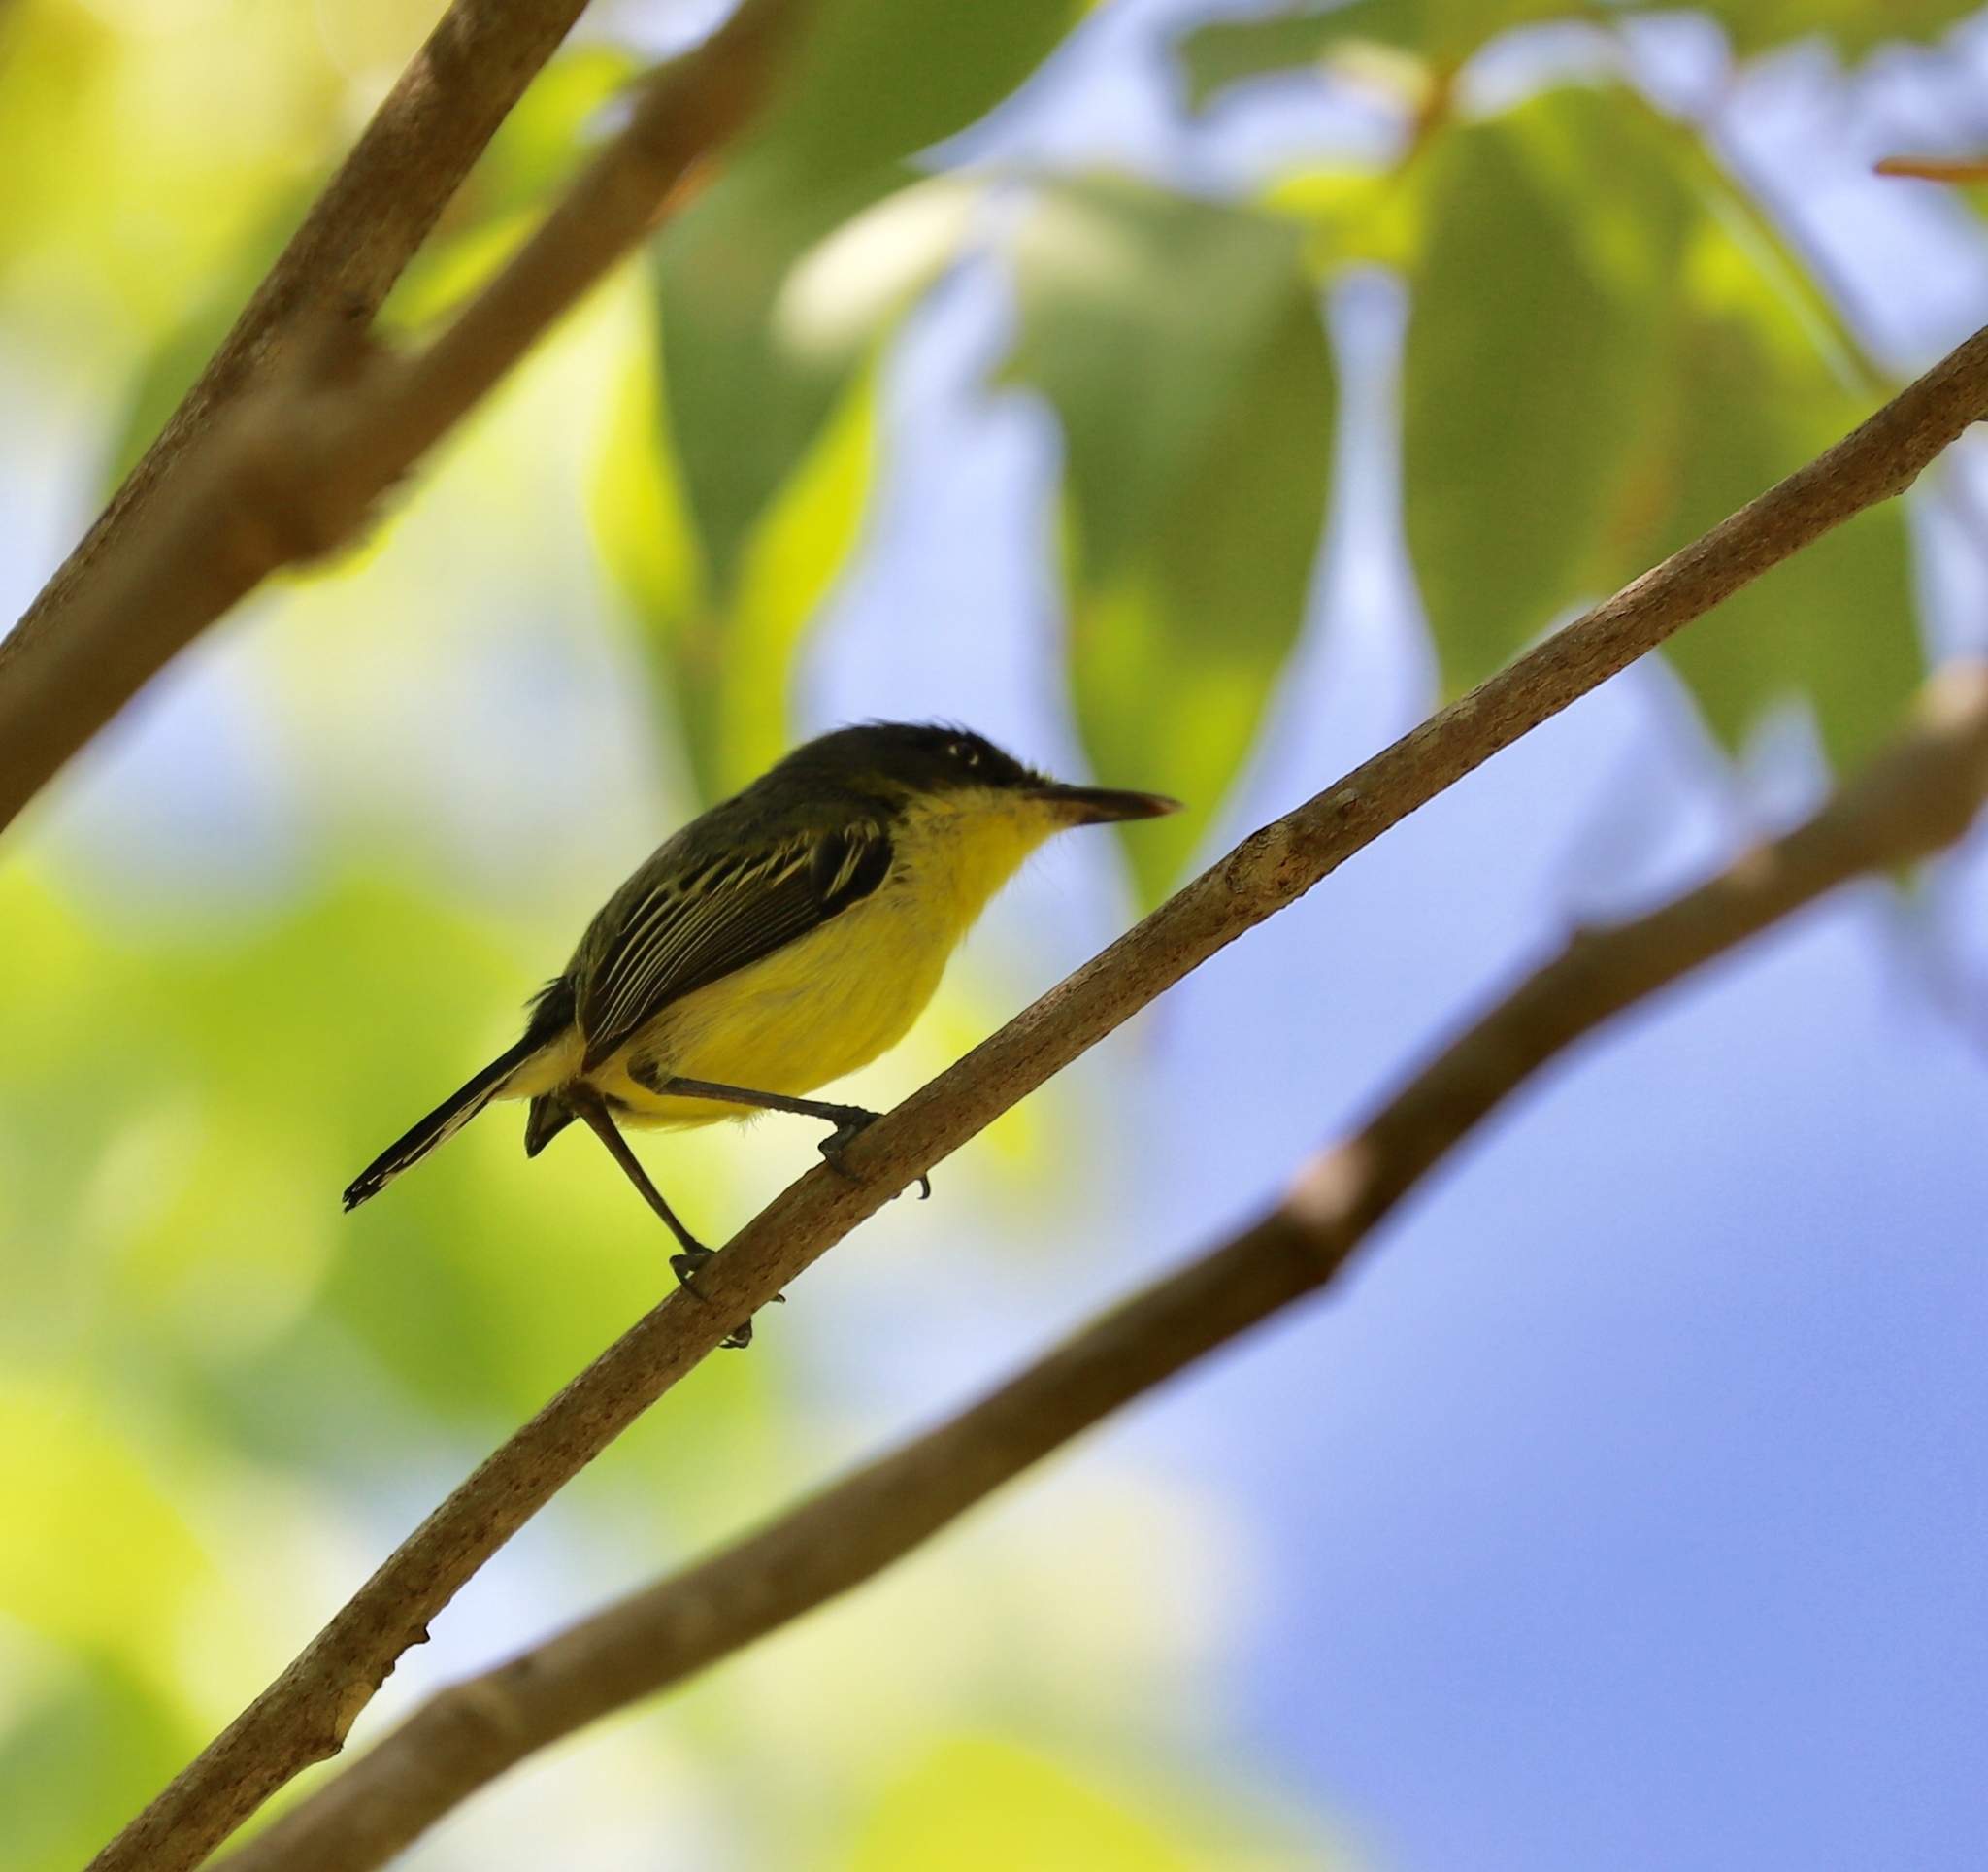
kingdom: Animalia
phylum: Chordata
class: Aves
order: Passeriformes
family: Tyrannidae
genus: Todirostrum
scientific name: Todirostrum cinereum
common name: Common tody-flycatcher
